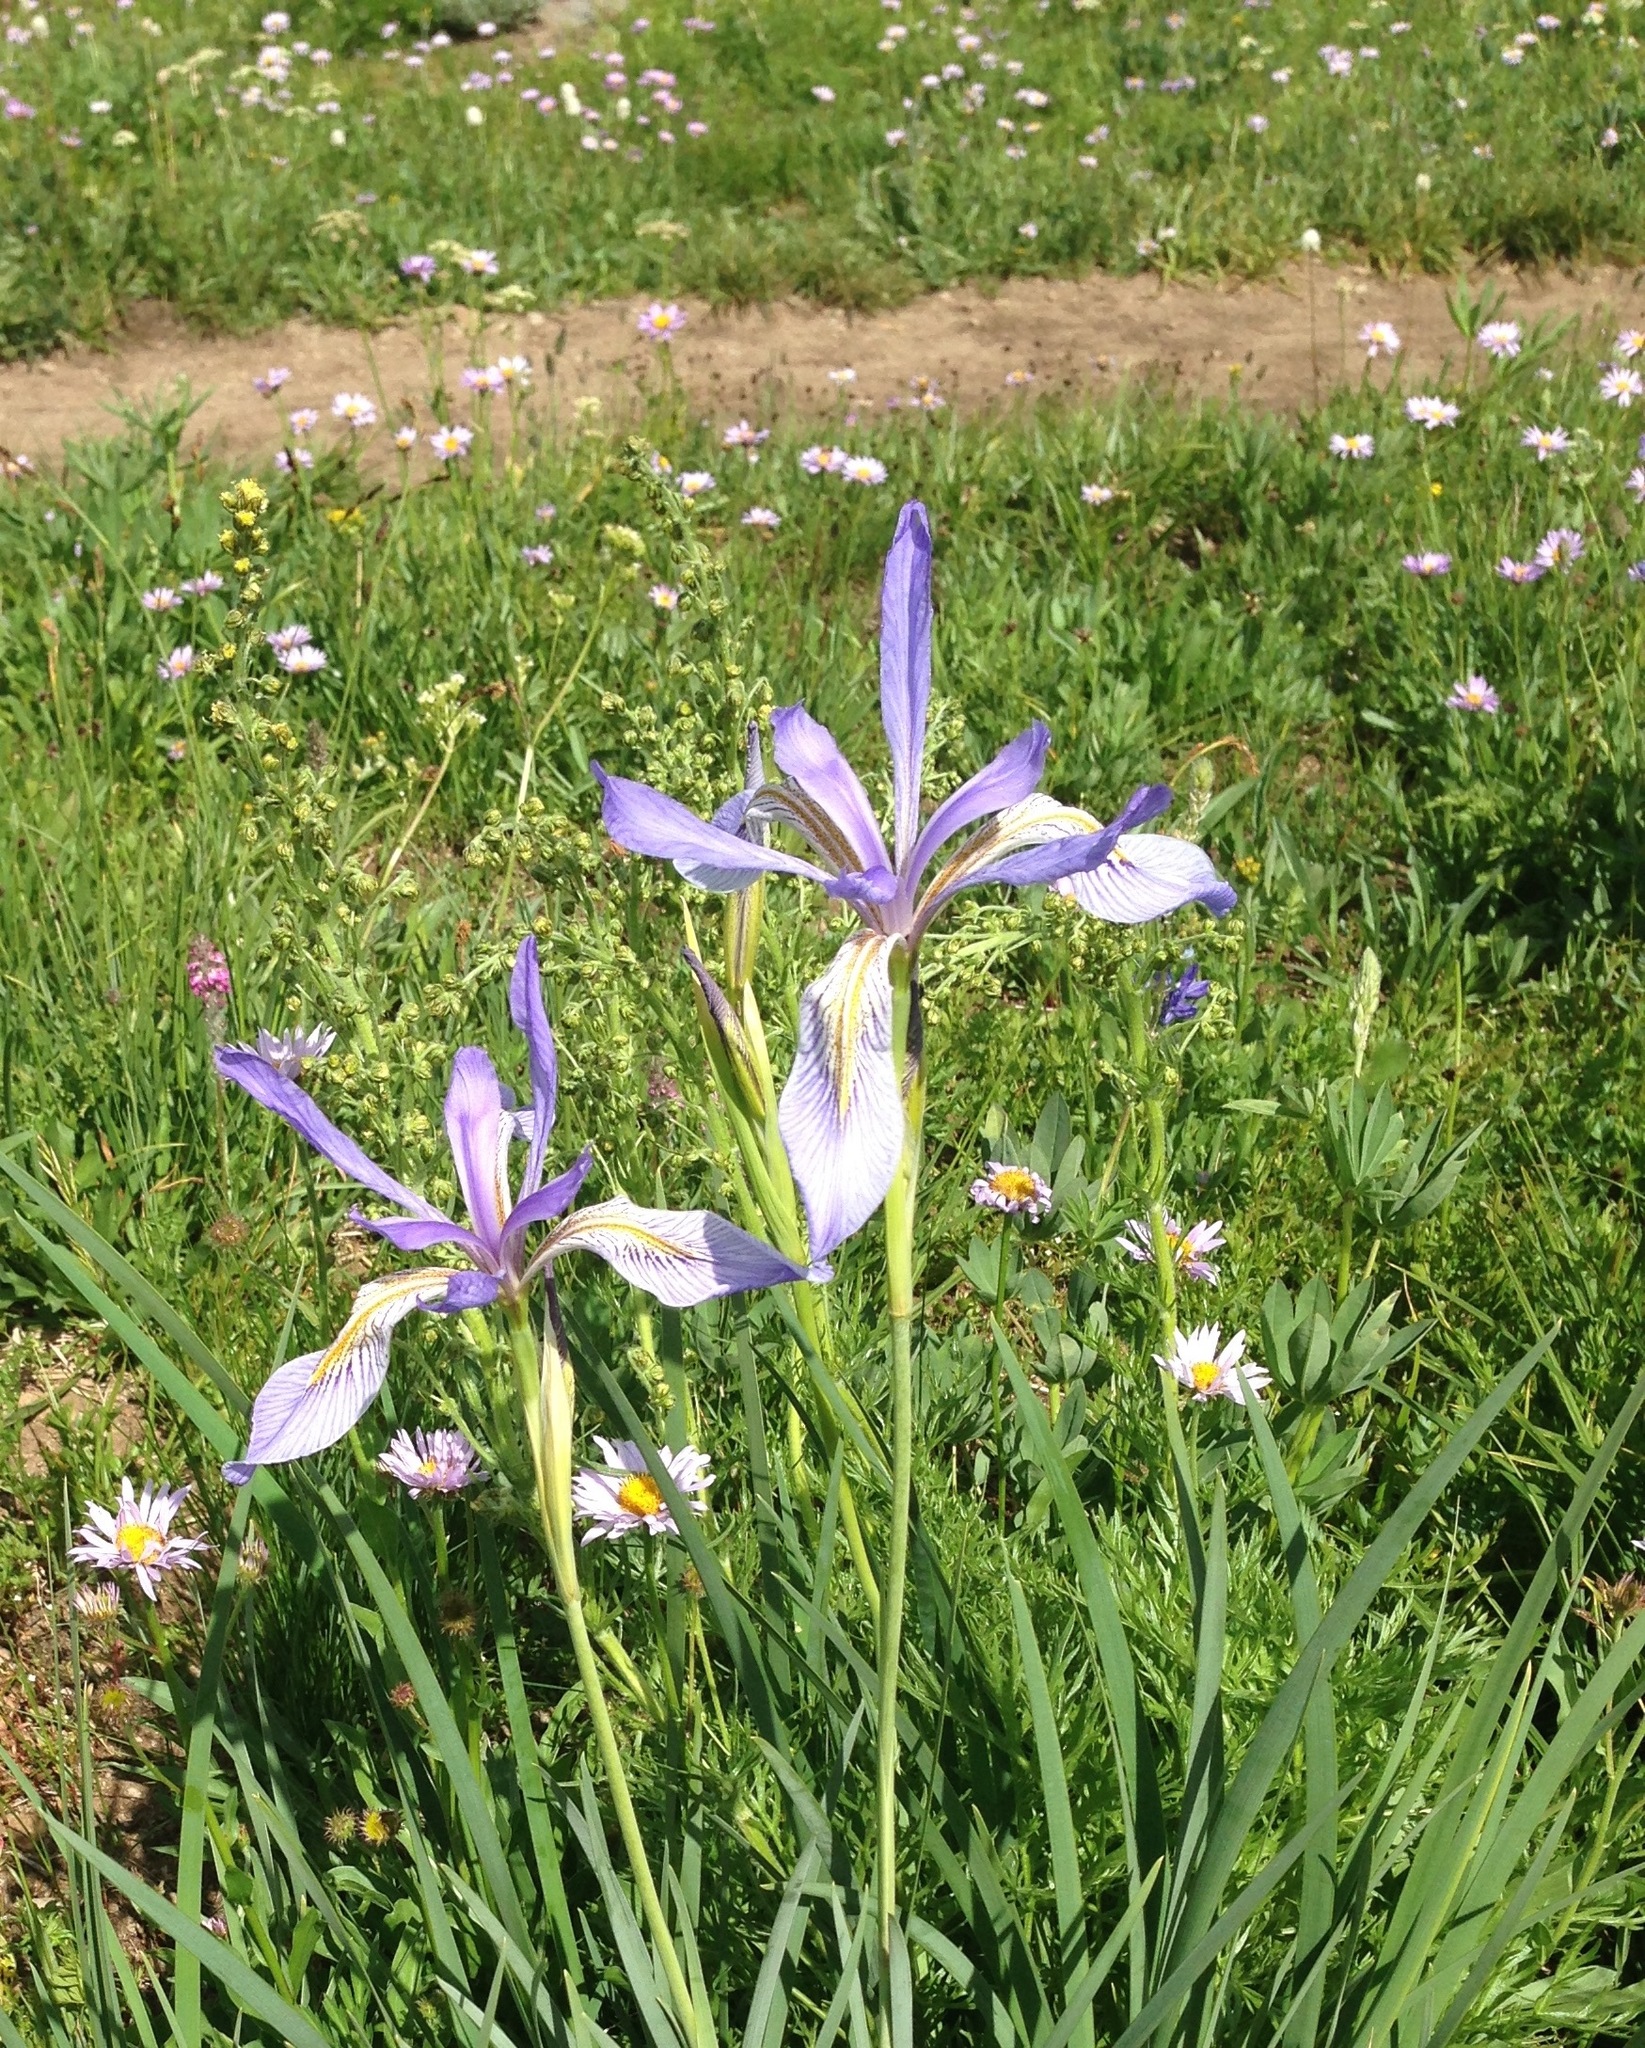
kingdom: Plantae
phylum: Tracheophyta
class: Liliopsida
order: Asparagales
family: Iridaceae
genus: Iris
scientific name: Iris missouriensis
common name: Rocky mountain iris
